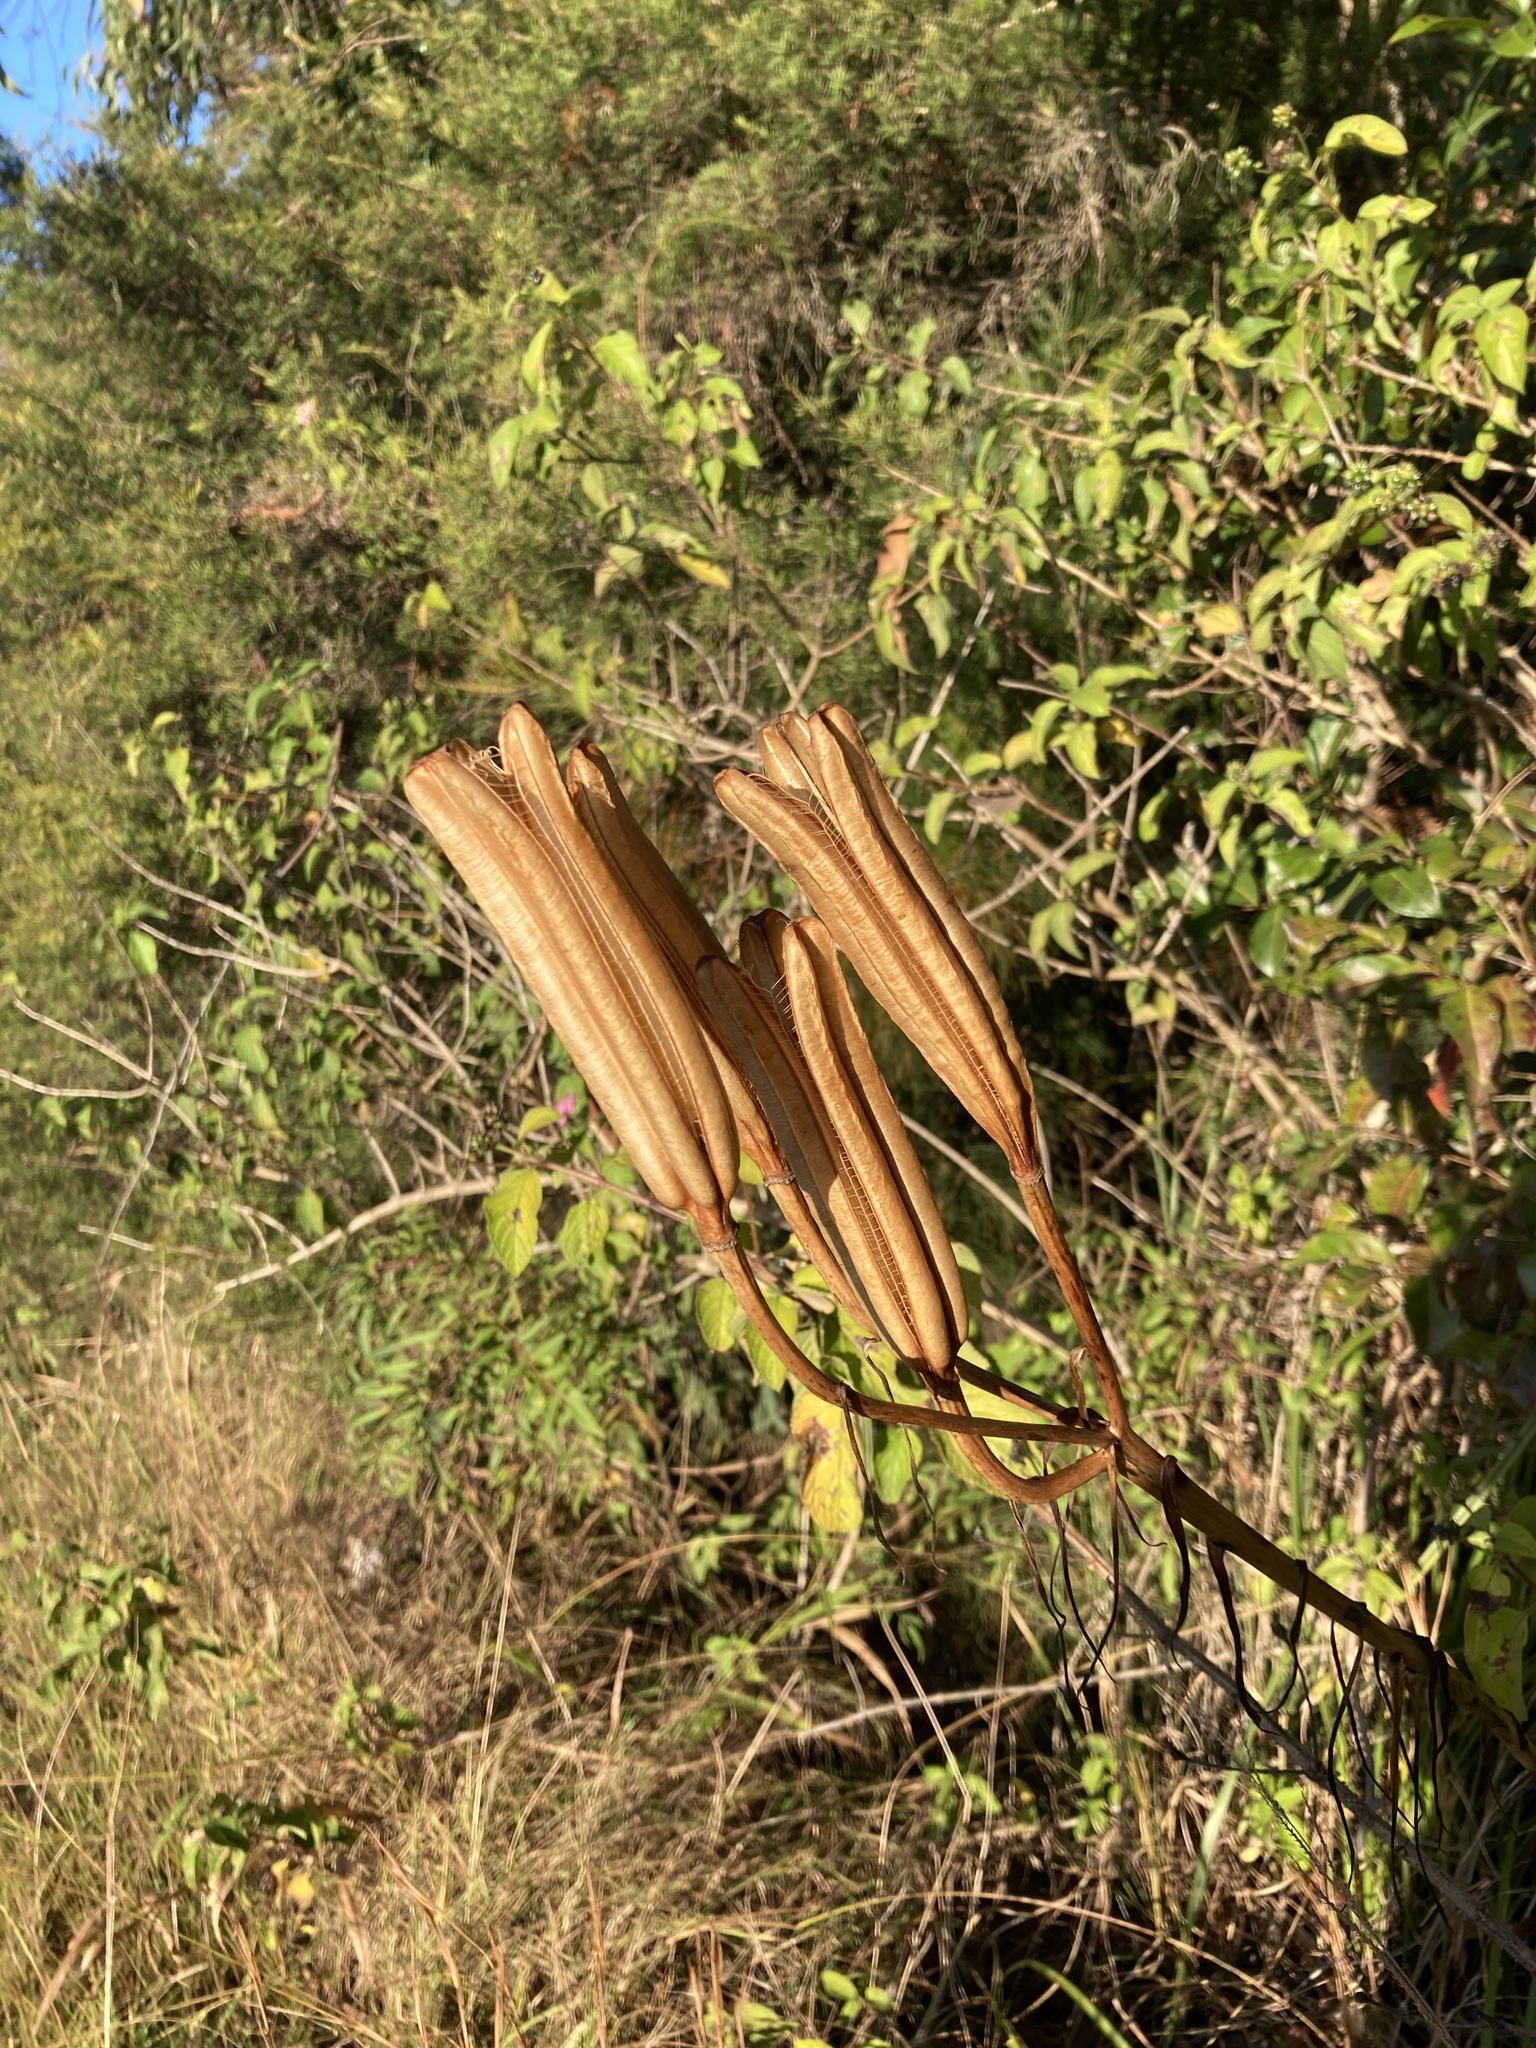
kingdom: Plantae
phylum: Tracheophyta
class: Liliopsida
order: Liliales
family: Liliaceae
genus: Lilium
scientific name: Lilium formosanum
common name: Formosa lily
